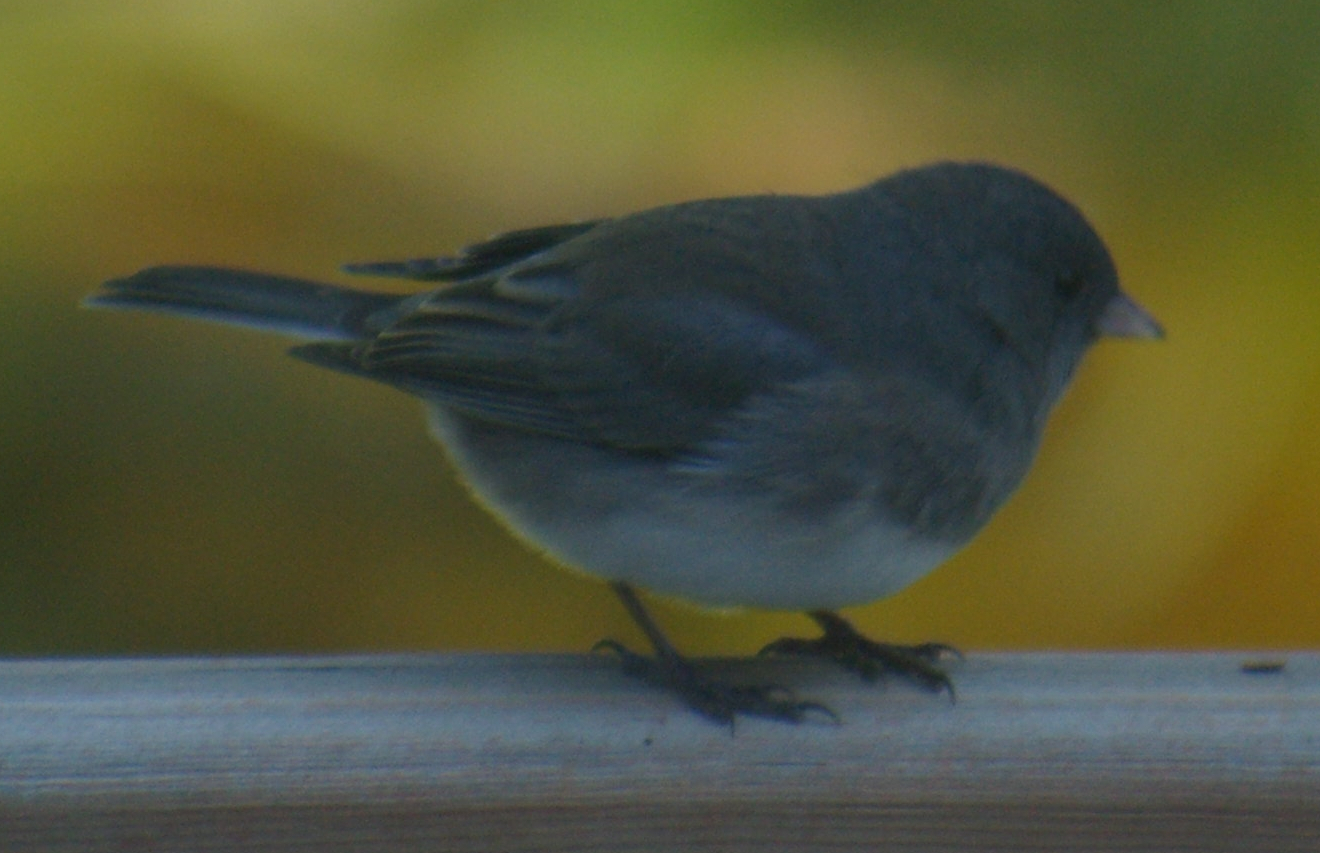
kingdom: Animalia
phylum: Chordata
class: Aves
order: Passeriformes
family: Passerellidae
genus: Junco
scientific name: Junco hyemalis
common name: Dark-eyed junco
